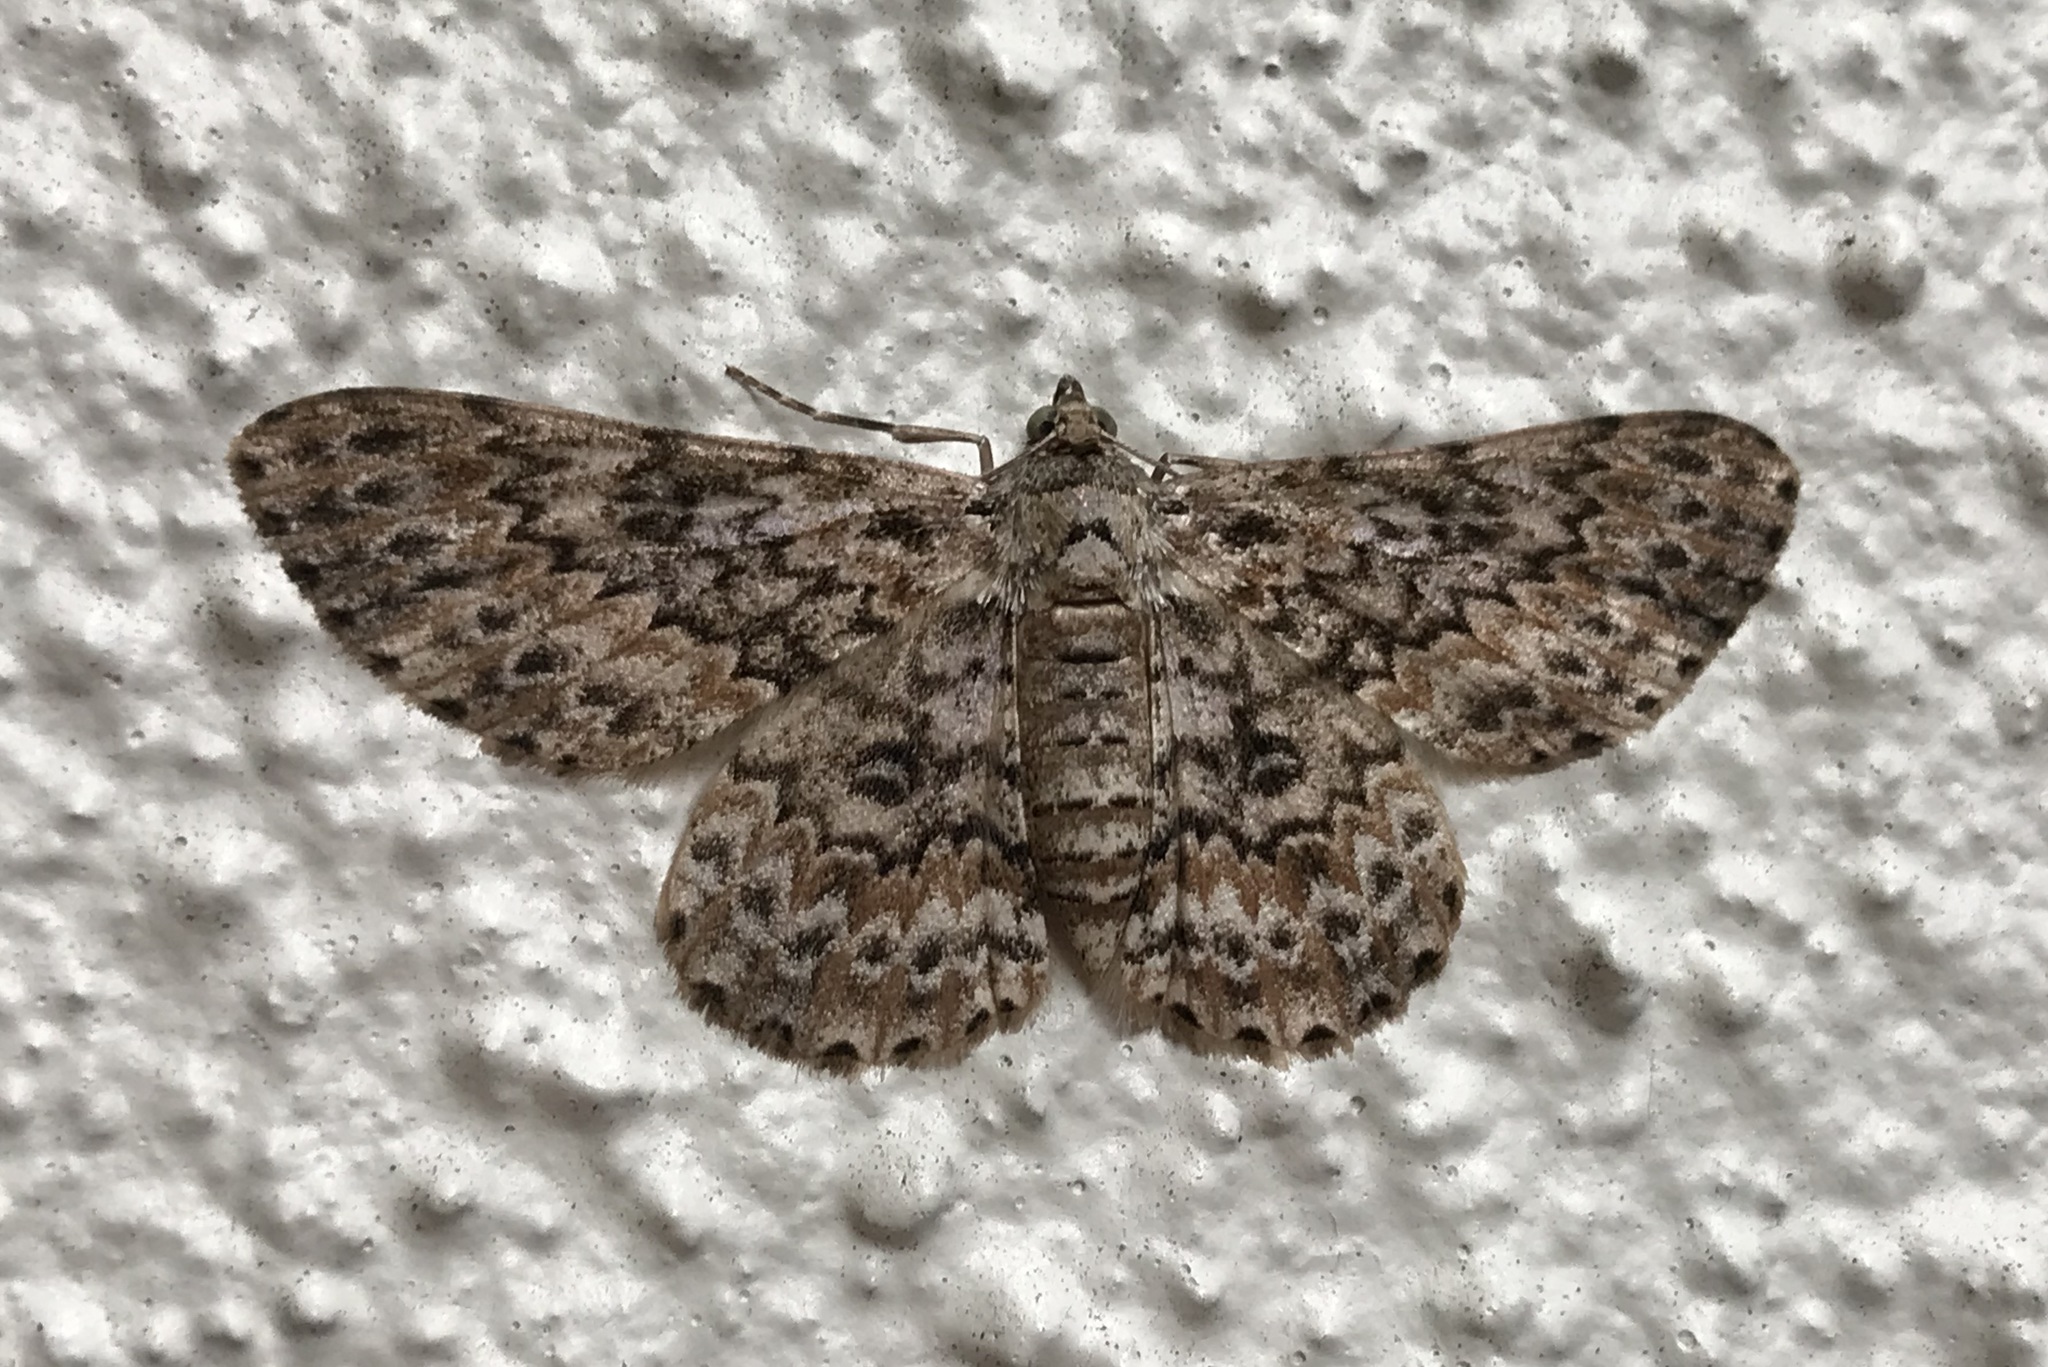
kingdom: Animalia
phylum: Arthropoda
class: Insecta
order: Lepidoptera
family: Geometridae
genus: Cleora
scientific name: Cleora sabulata
